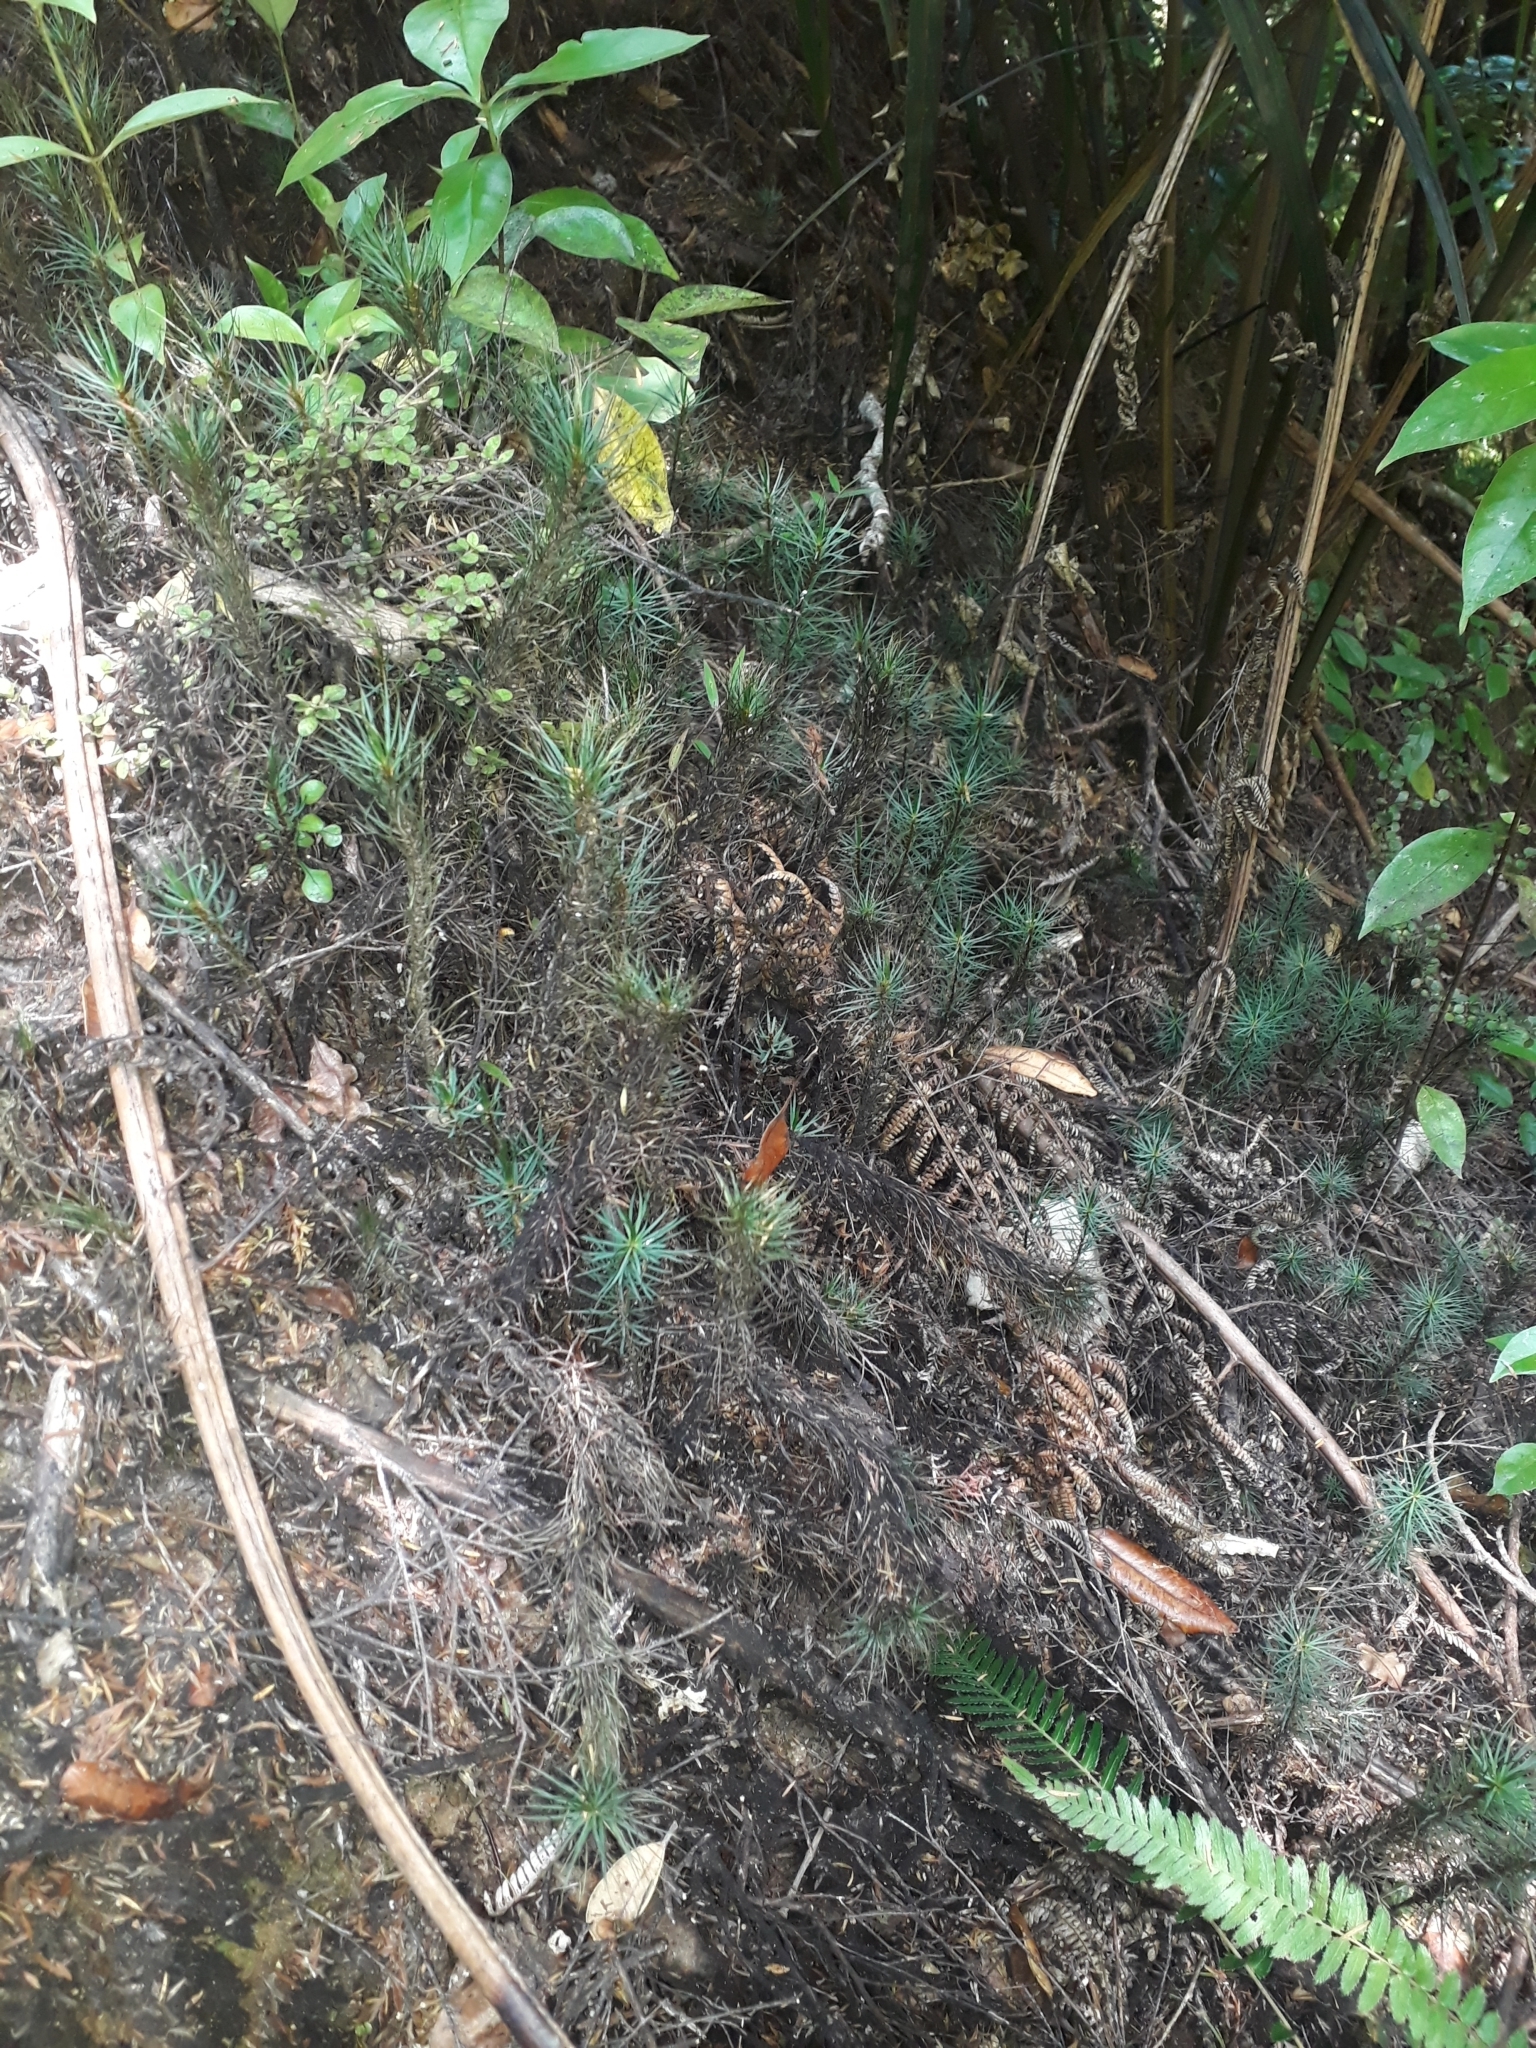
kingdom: Plantae
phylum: Bryophyta
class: Polytrichopsida
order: Polytrichales
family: Polytrichaceae
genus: Dawsonia
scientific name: Dawsonia superba
